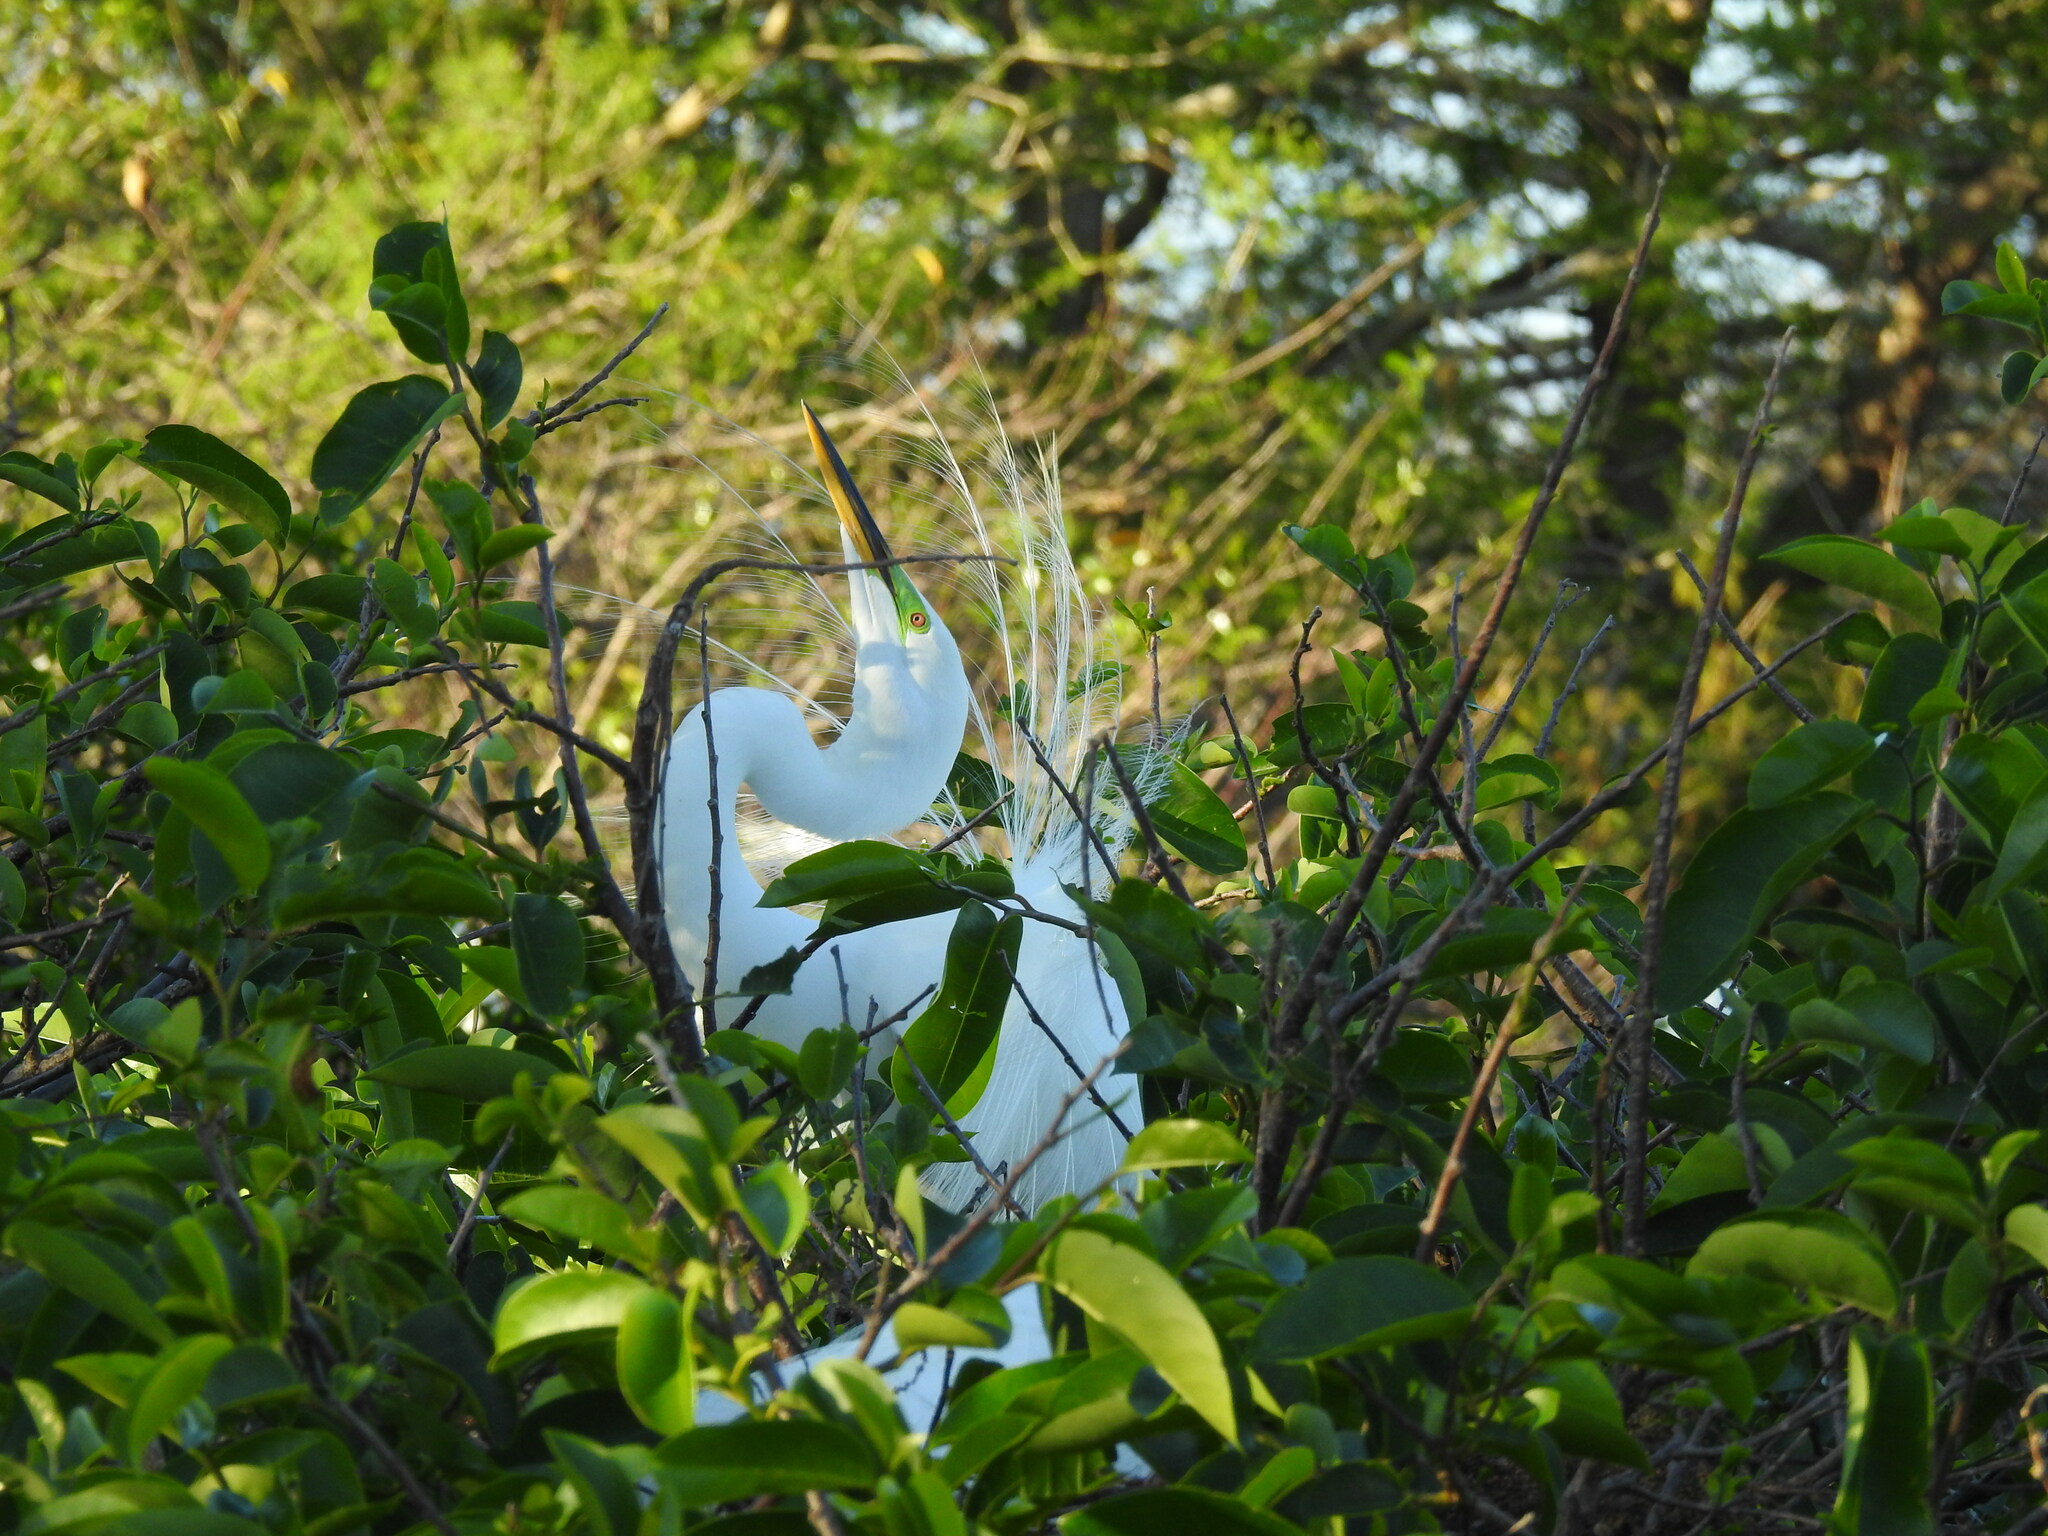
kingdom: Animalia
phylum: Chordata
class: Aves
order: Pelecaniformes
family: Ardeidae
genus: Ardea
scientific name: Ardea alba
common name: Great egret
